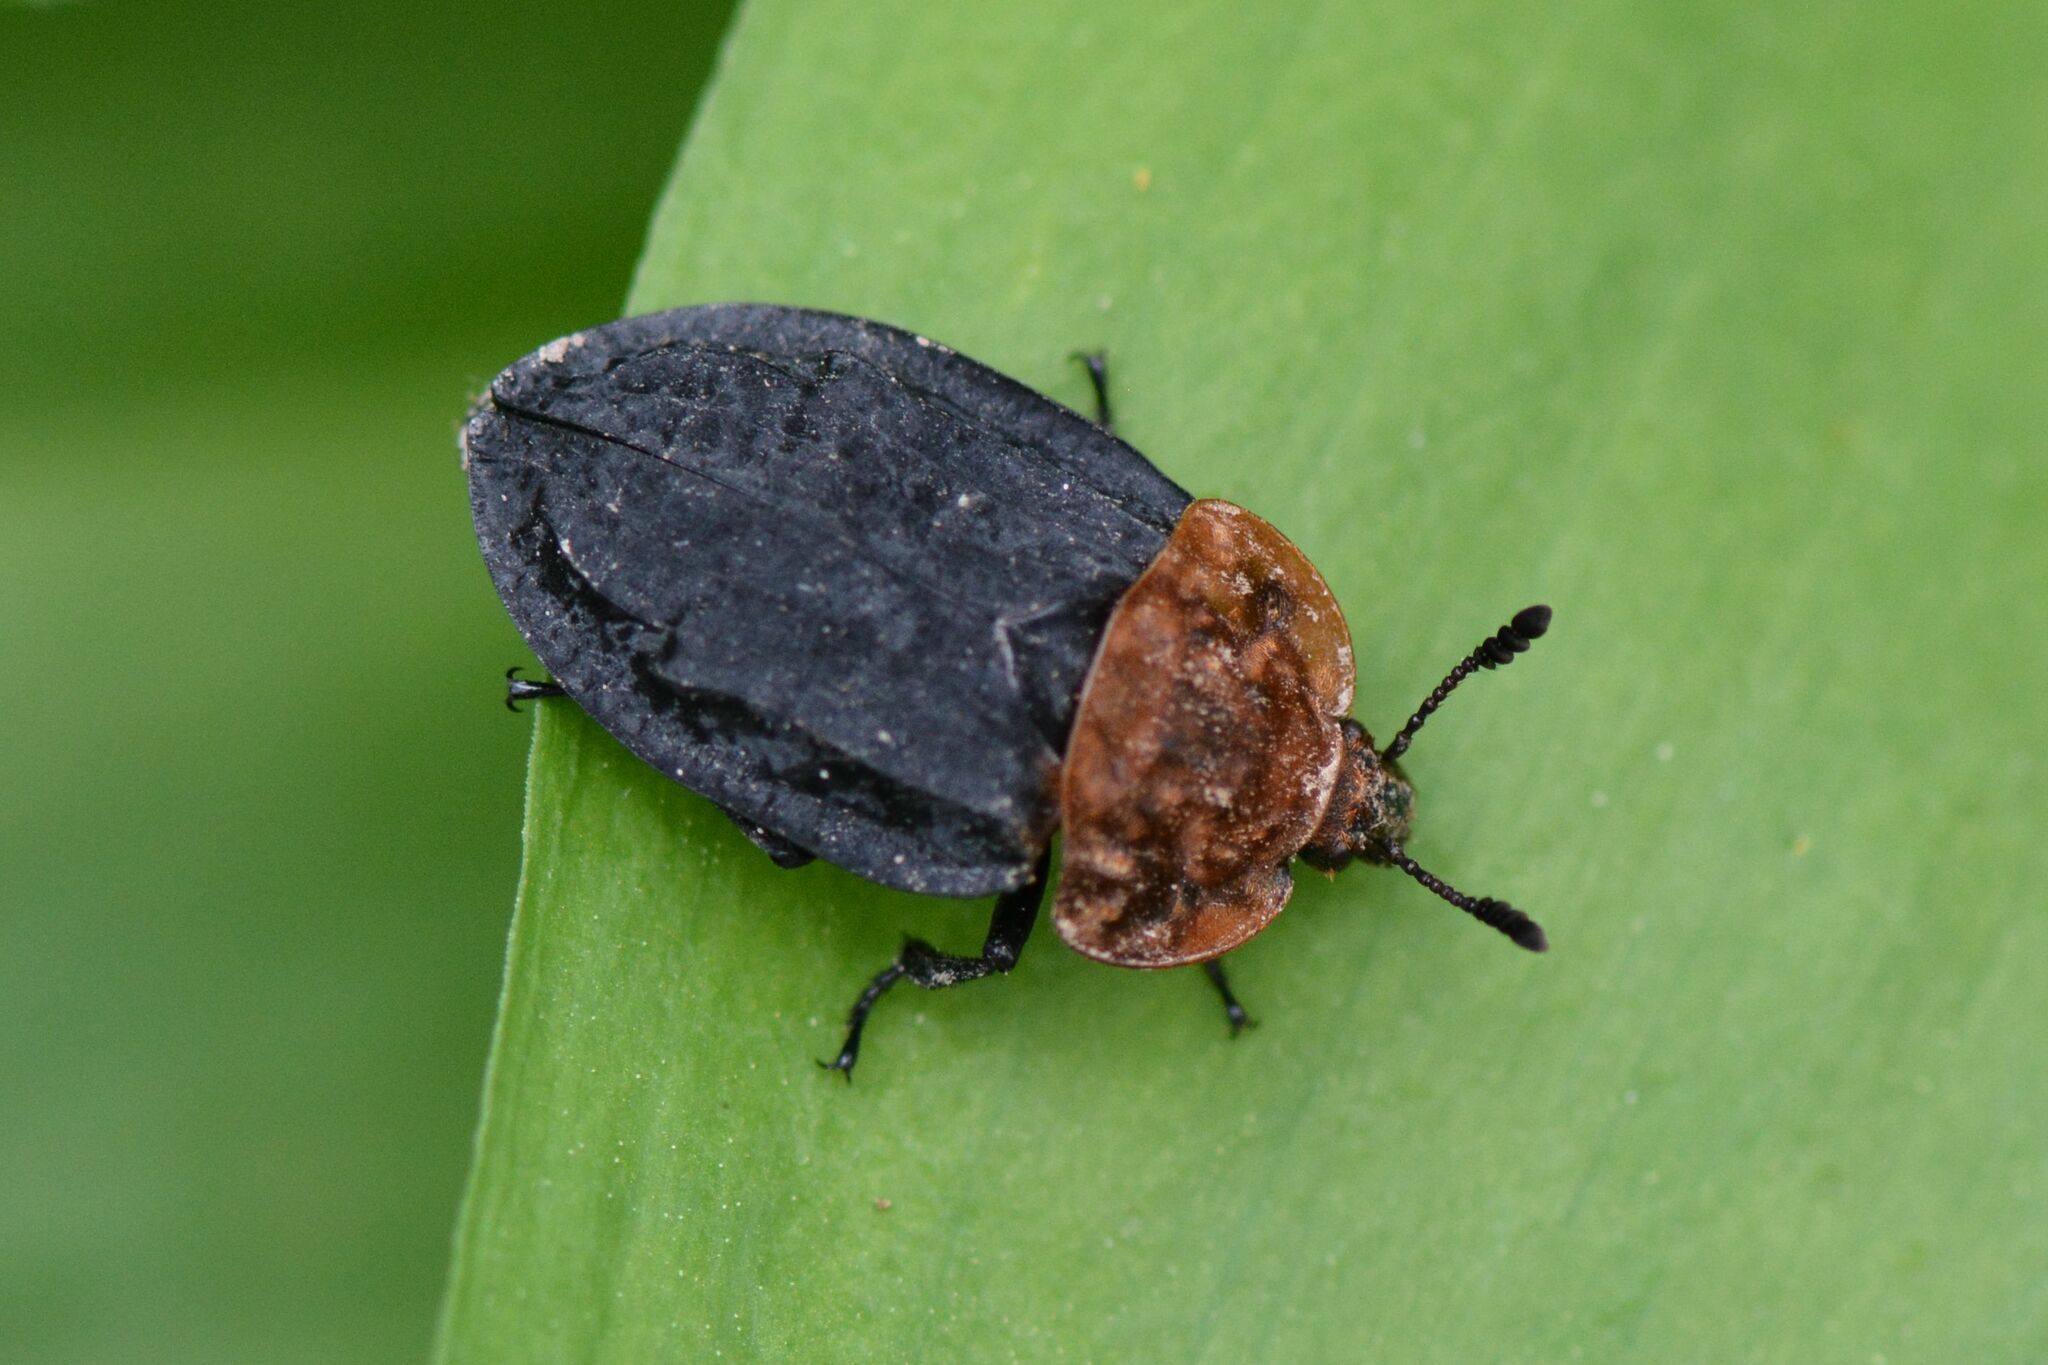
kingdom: Animalia
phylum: Arthropoda
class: Insecta
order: Coleoptera
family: Staphylinidae
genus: Oiceoptoma
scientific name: Oiceoptoma thoracicum
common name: Red-breasted carrion beetle
